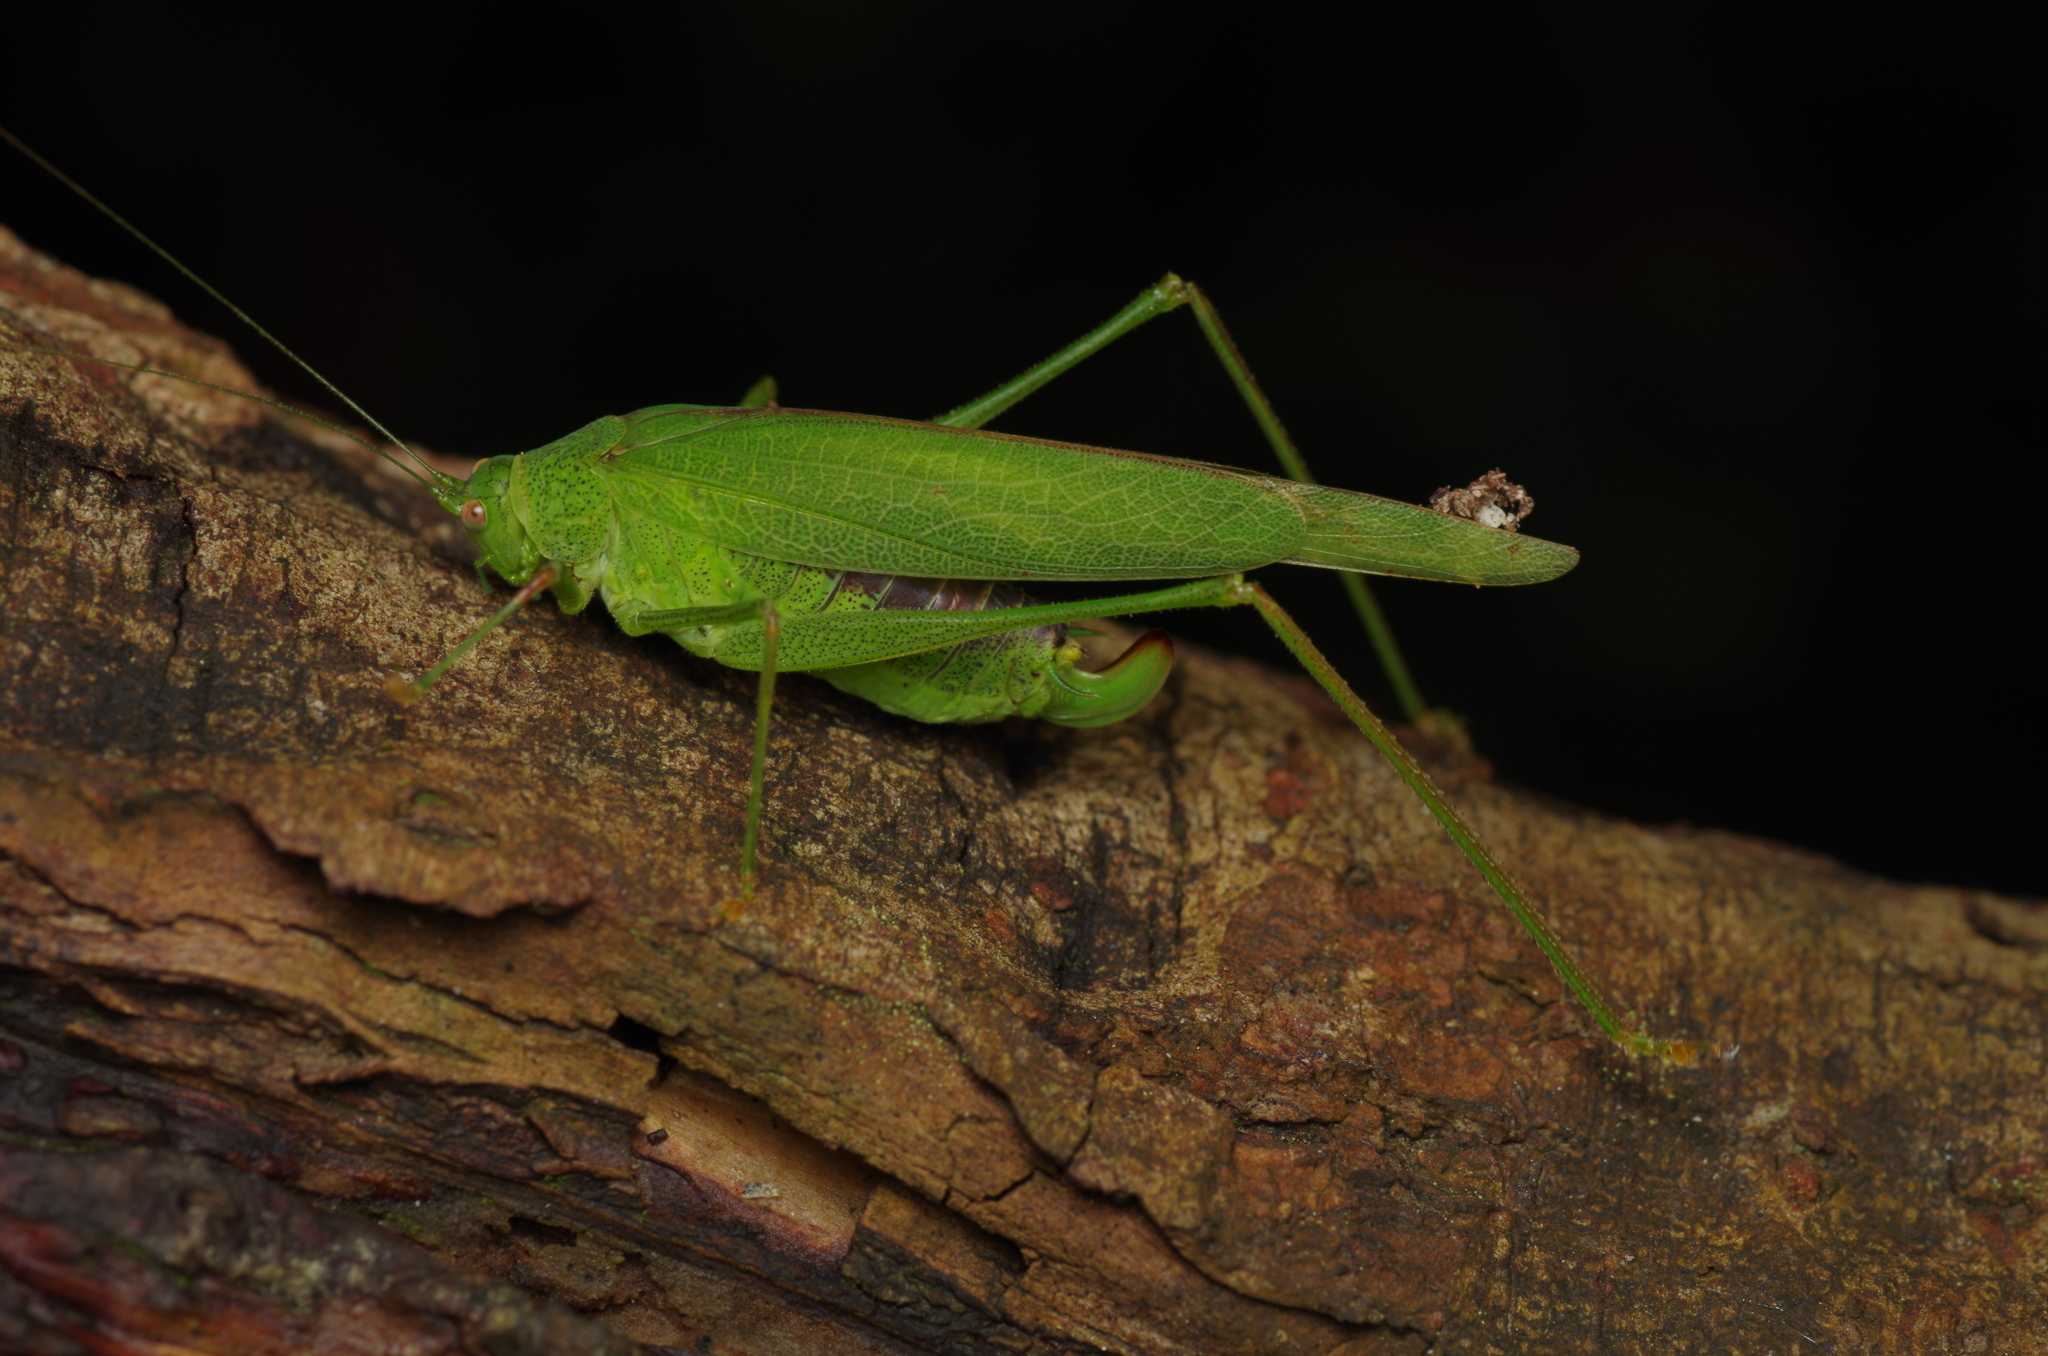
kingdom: Animalia
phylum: Arthropoda
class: Insecta
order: Orthoptera
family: Tettigoniidae
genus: Phaneroptera
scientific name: Phaneroptera nana
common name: Southern sickle bush-cricket
